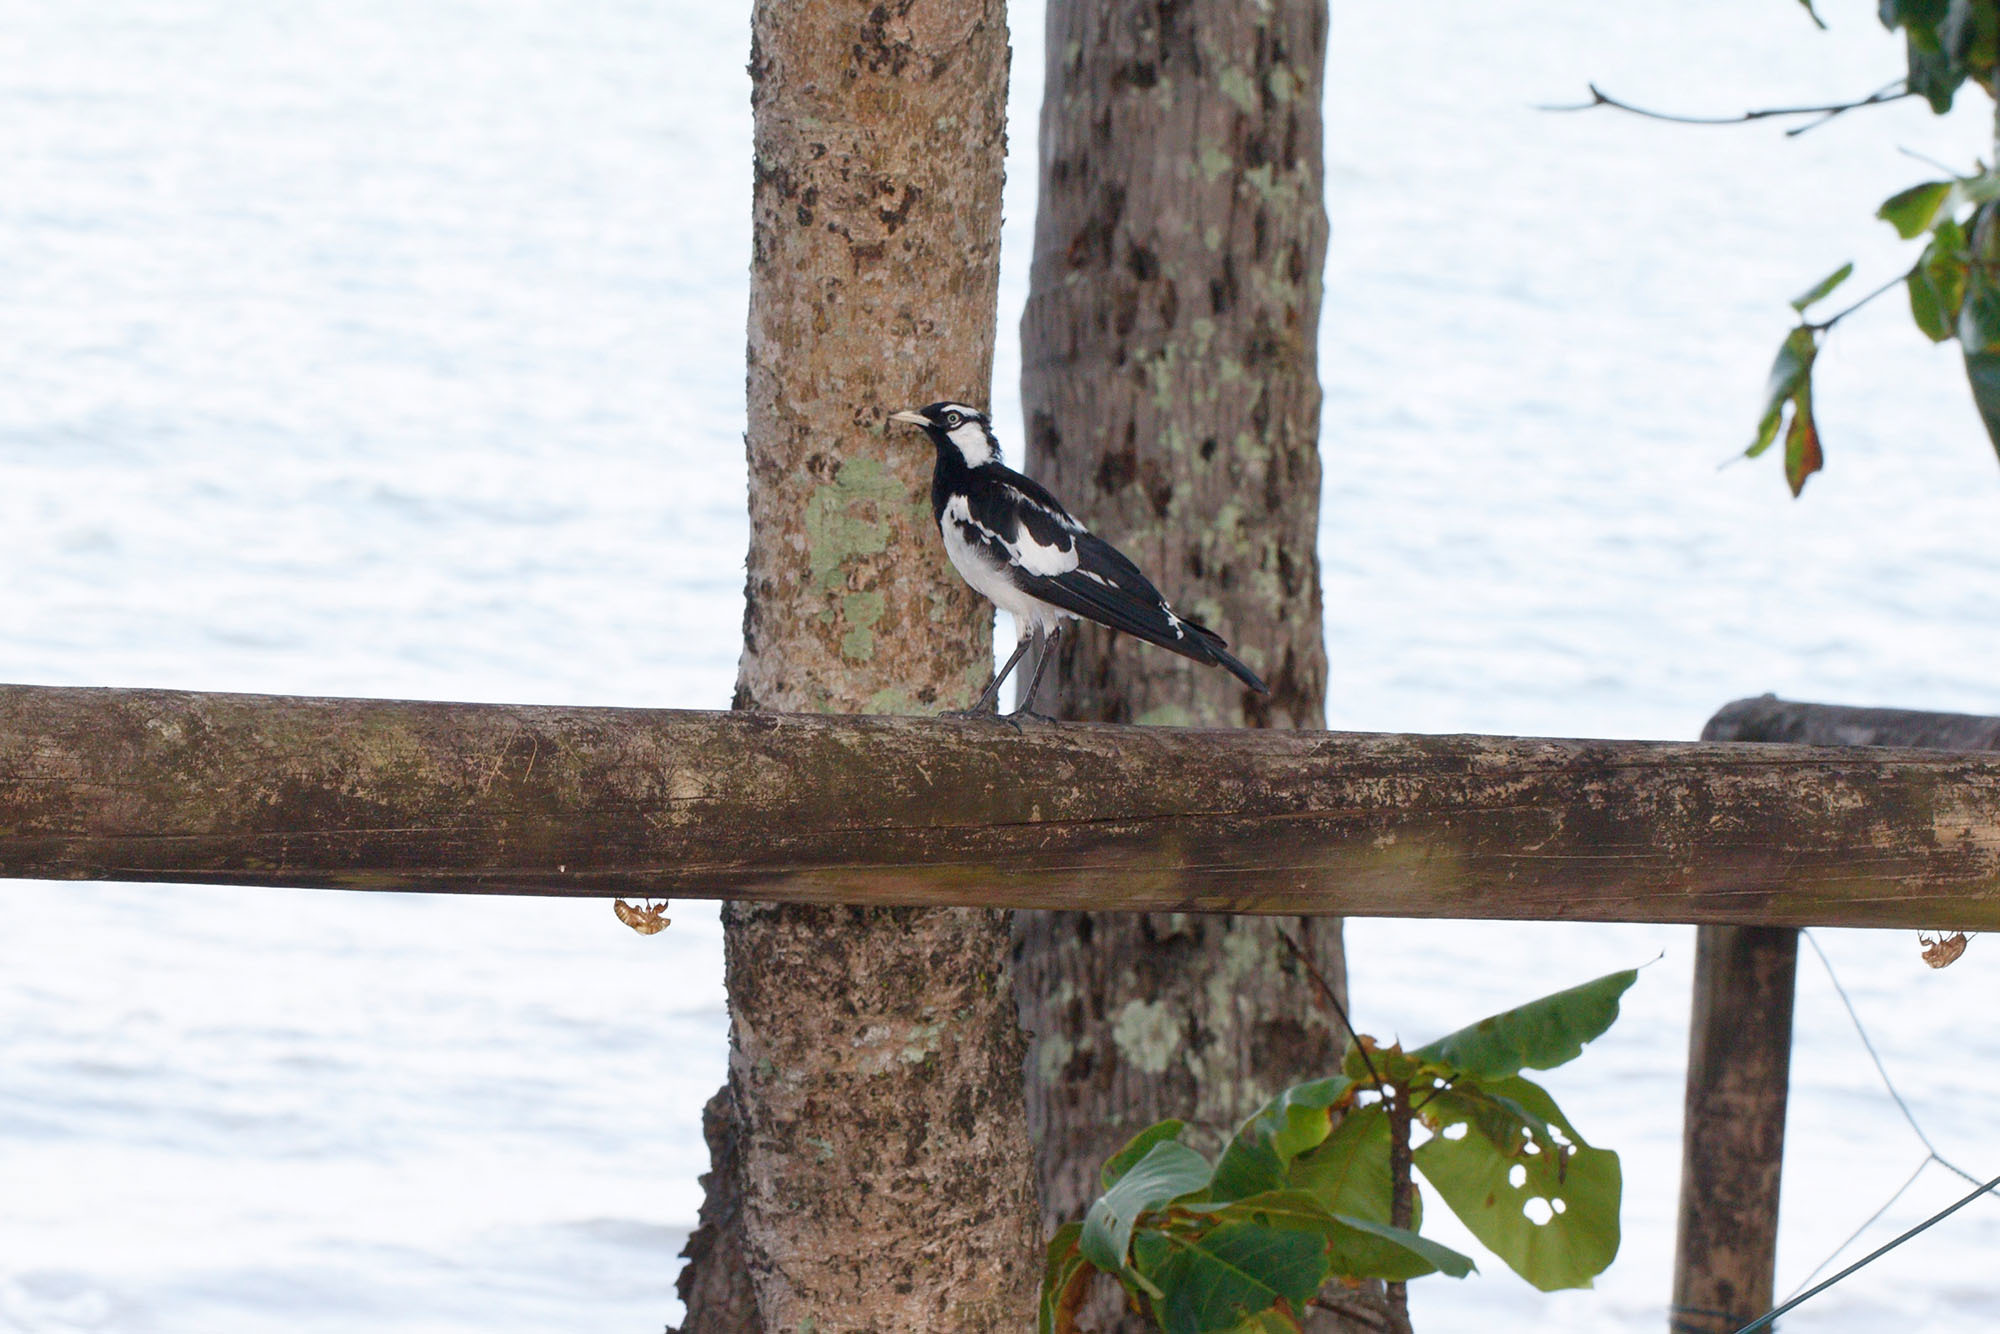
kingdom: Animalia
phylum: Chordata
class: Aves
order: Passeriformes
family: Monarchidae
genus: Grallina
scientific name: Grallina cyanoleuca
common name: Magpie-lark
